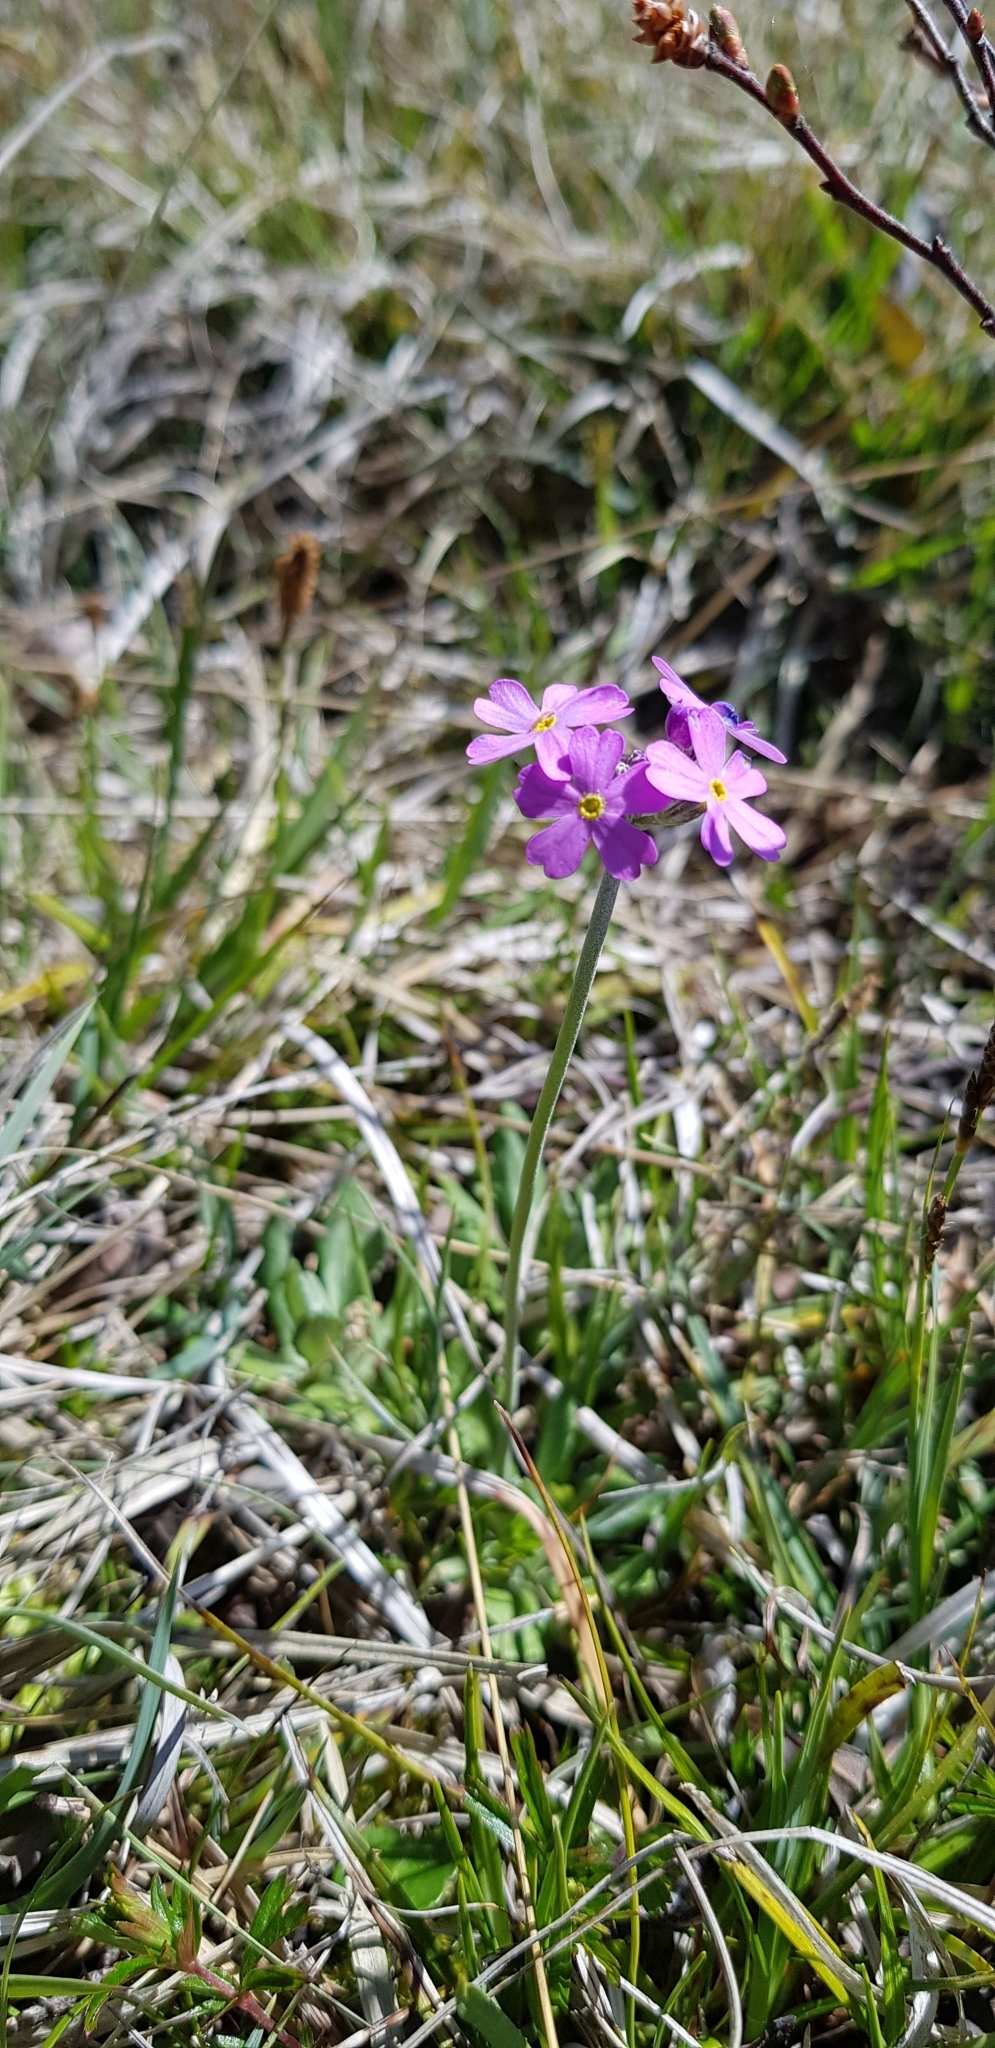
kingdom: Plantae
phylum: Tracheophyta
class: Magnoliopsida
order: Ericales
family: Primulaceae
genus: Primula
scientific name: Primula farinosa
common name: Bird's-eye primrose
